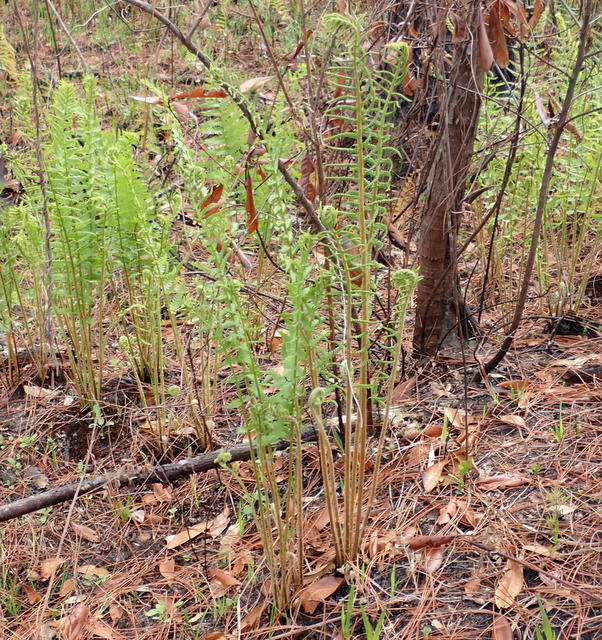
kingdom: Plantae
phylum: Tracheophyta
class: Polypodiopsida
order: Osmundales
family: Osmundaceae
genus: Osmundastrum
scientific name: Osmundastrum cinnamomeum
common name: Cinnamon fern
